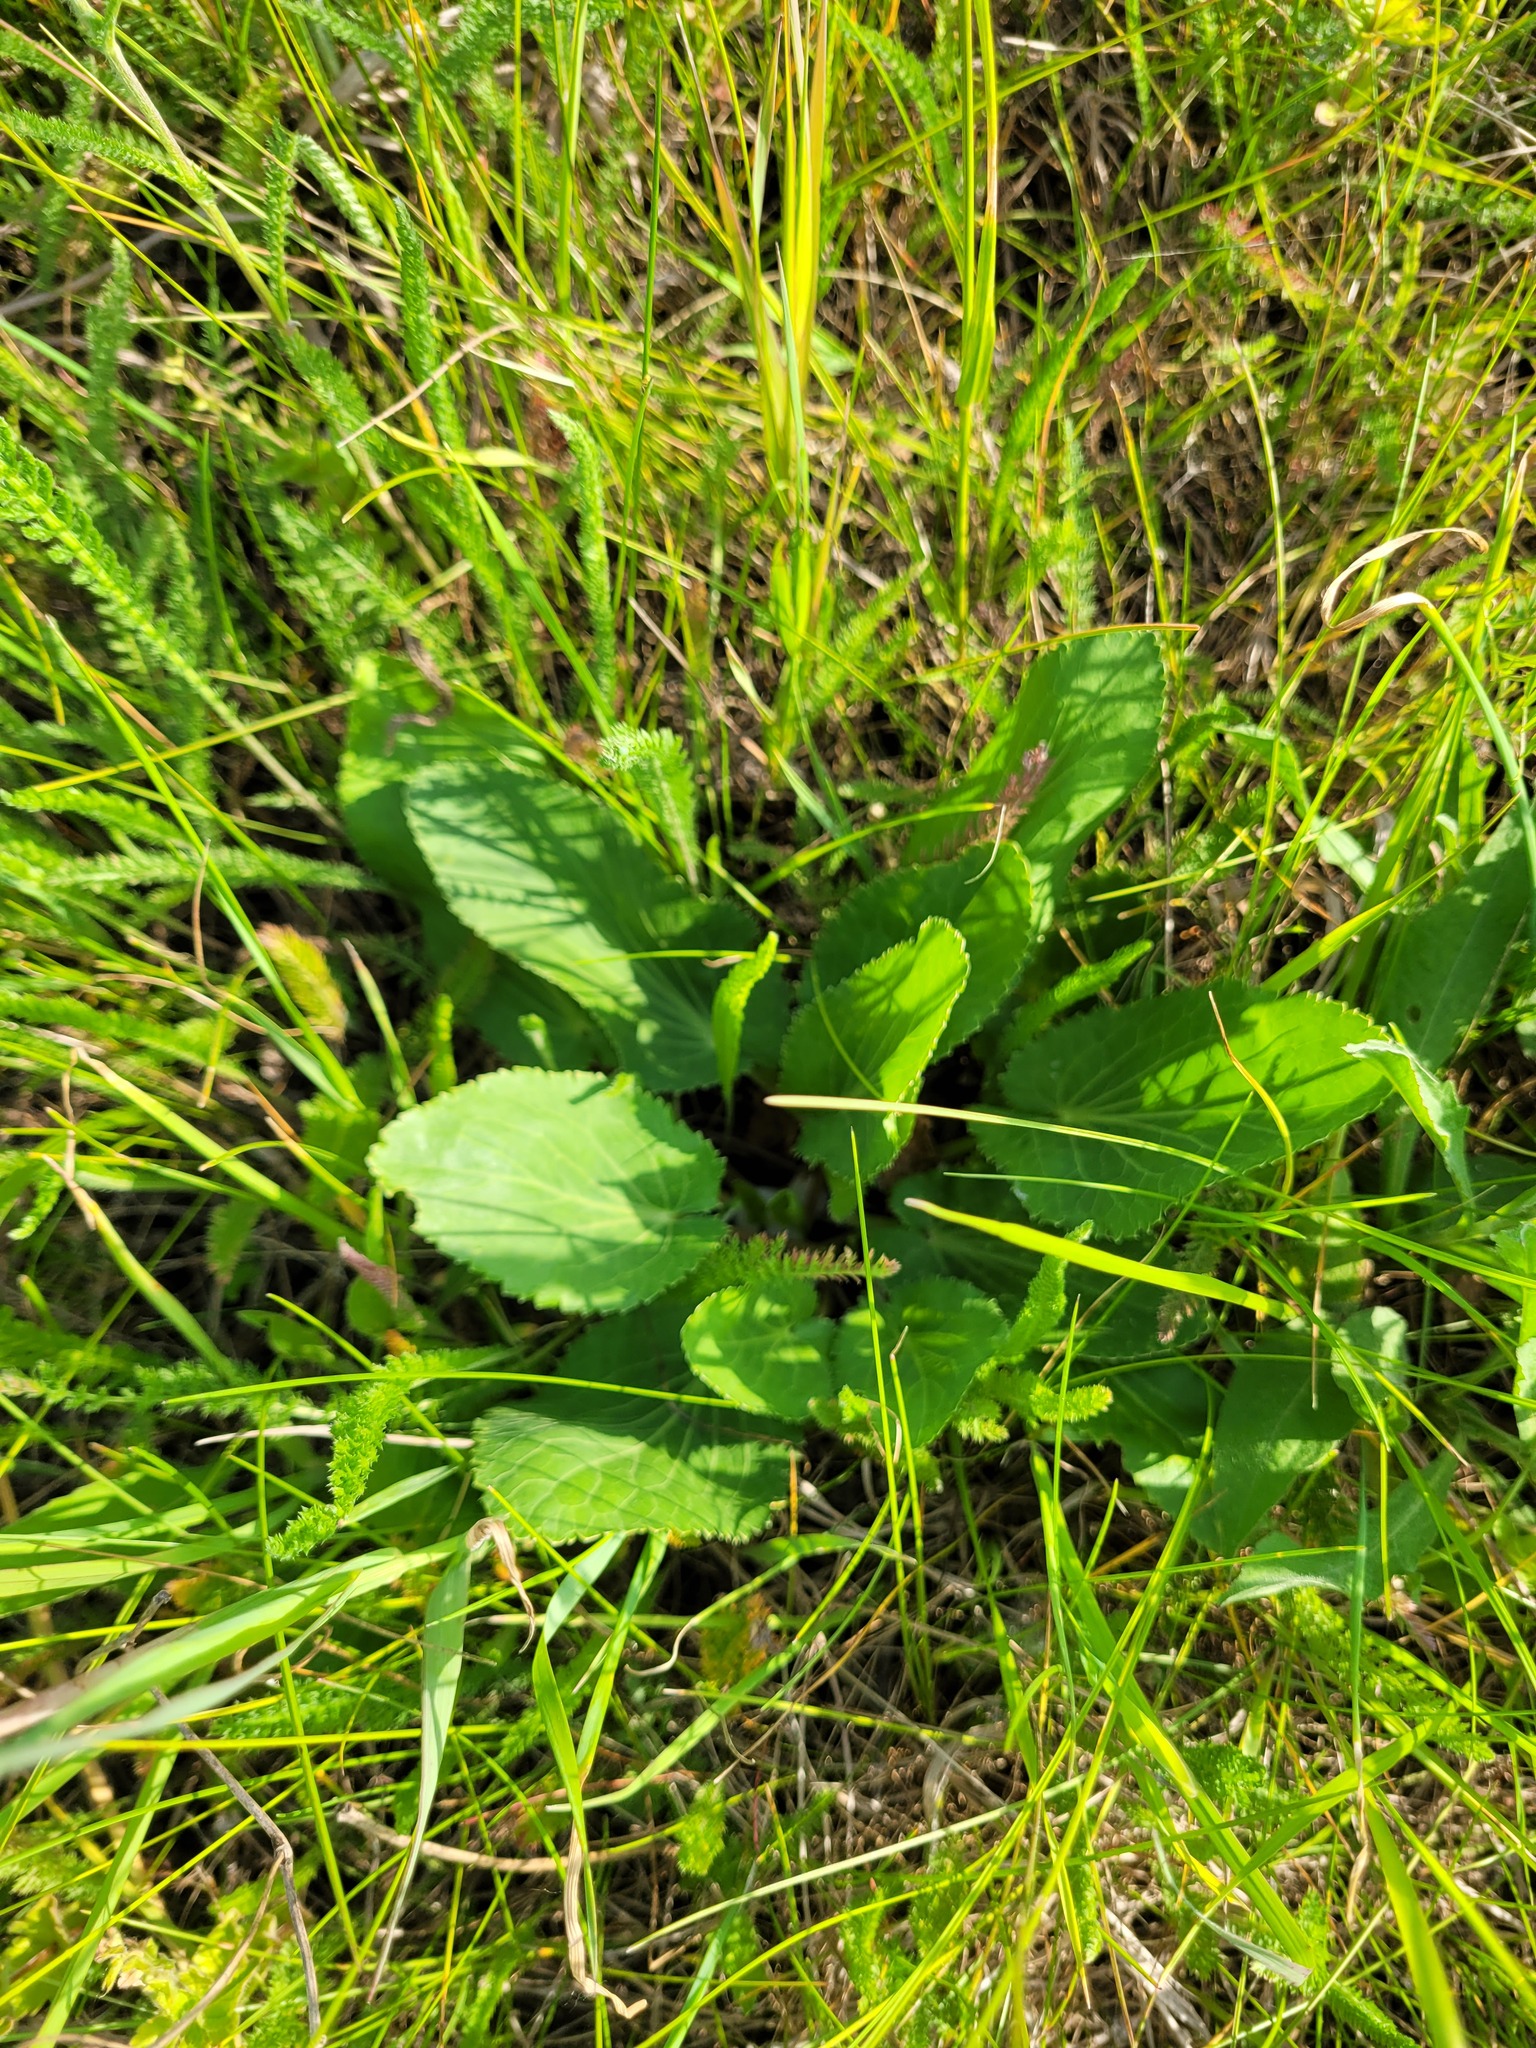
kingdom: Plantae
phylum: Tracheophyta
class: Magnoliopsida
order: Apiales
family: Apiaceae
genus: Eryngium
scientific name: Eryngium planum
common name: Blue eryngo
